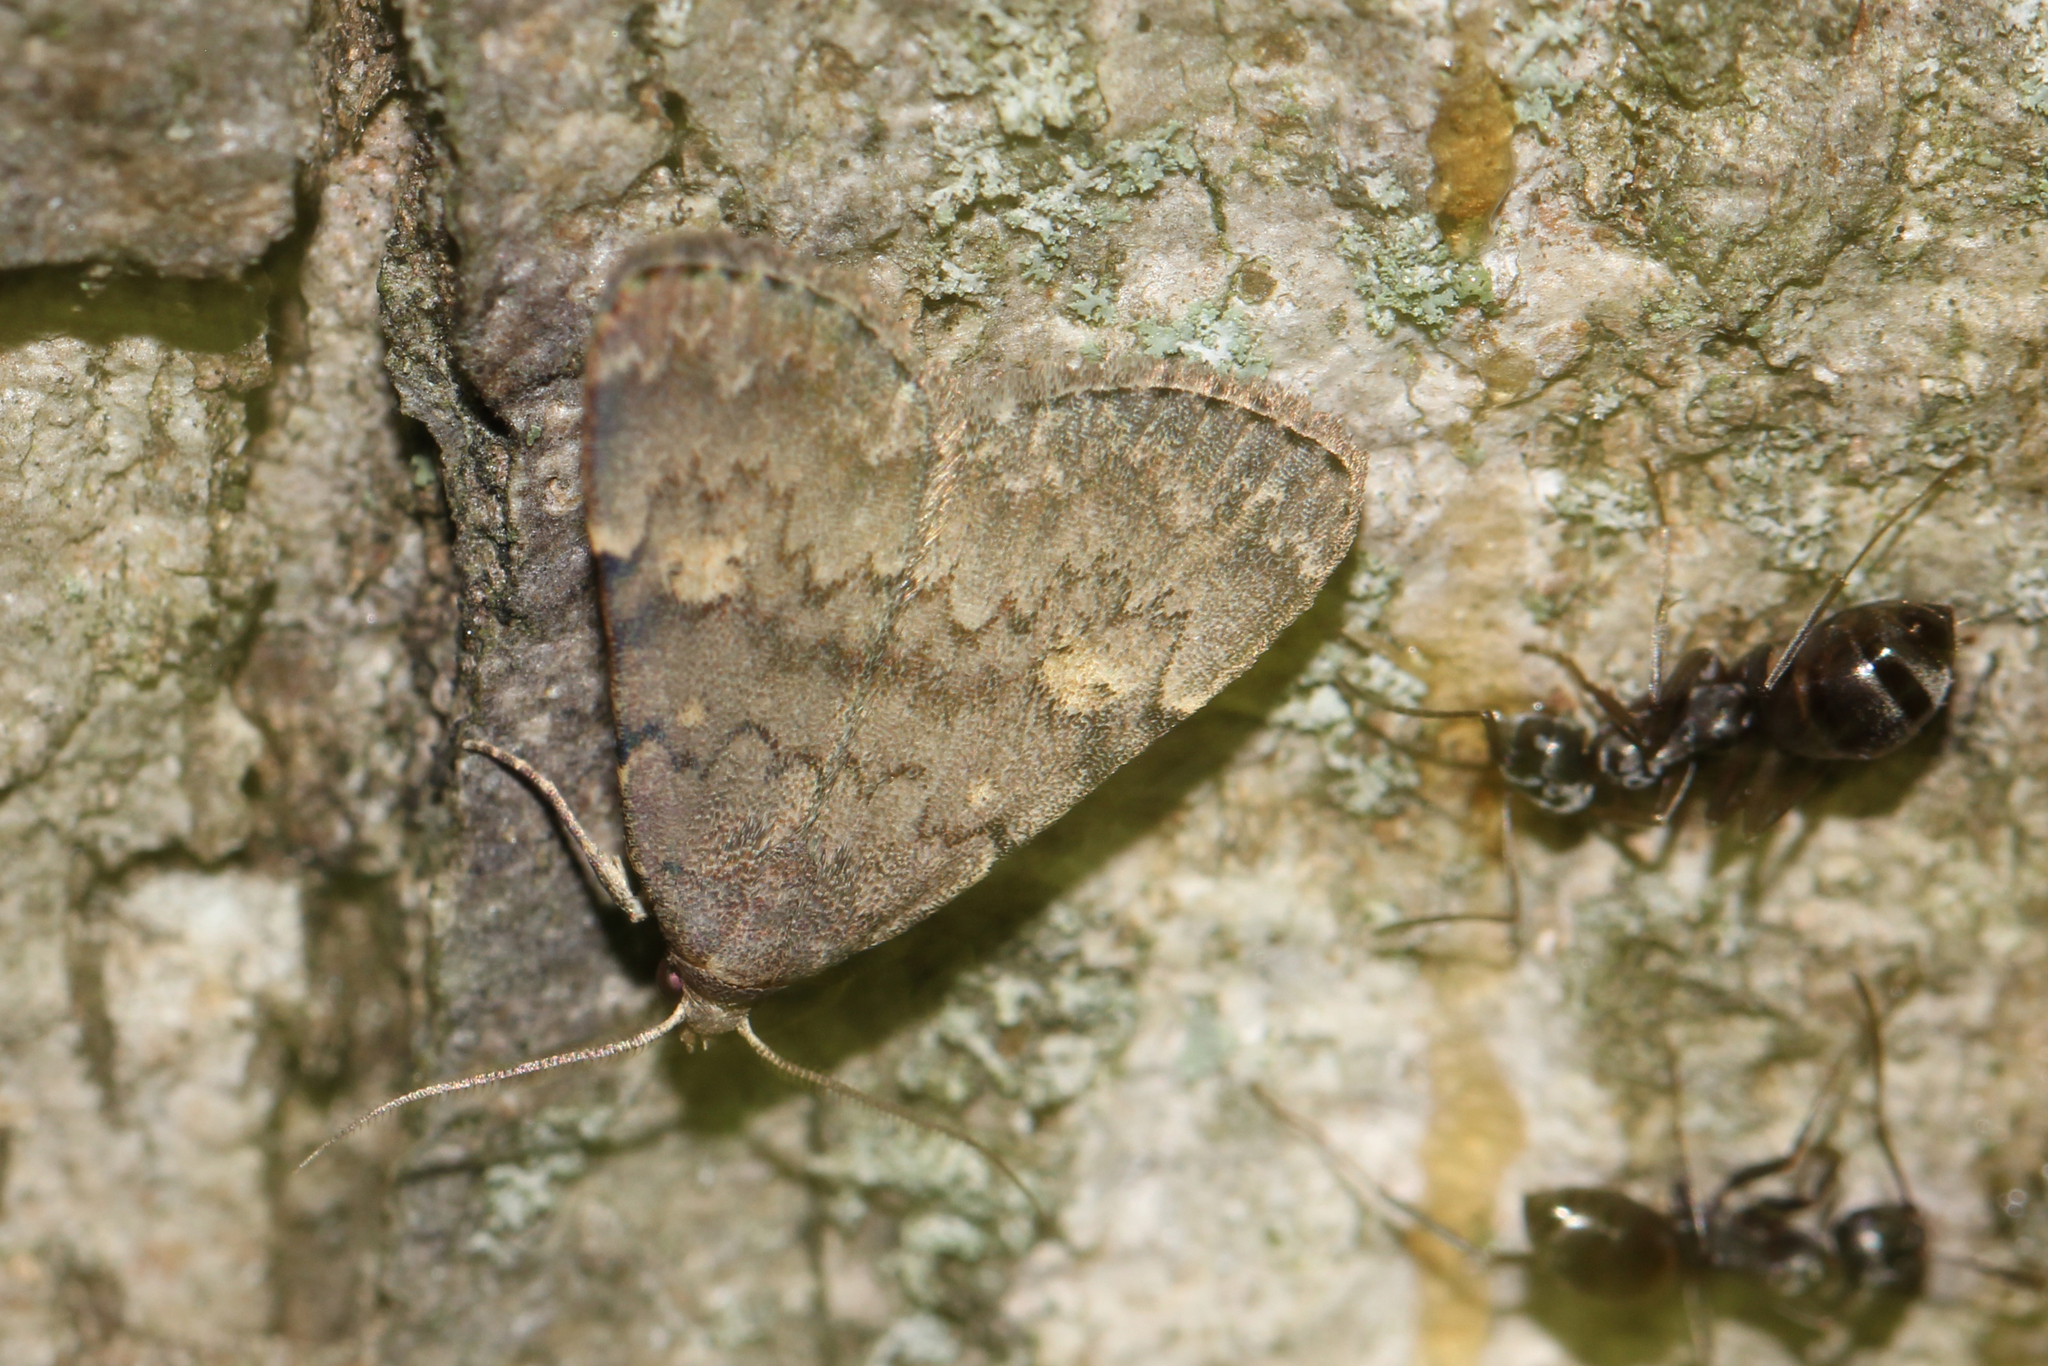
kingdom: Animalia
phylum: Arthropoda
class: Insecta
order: Lepidoptera
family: Erebidae
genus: Idia
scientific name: Idia aemula
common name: Common idia moth
